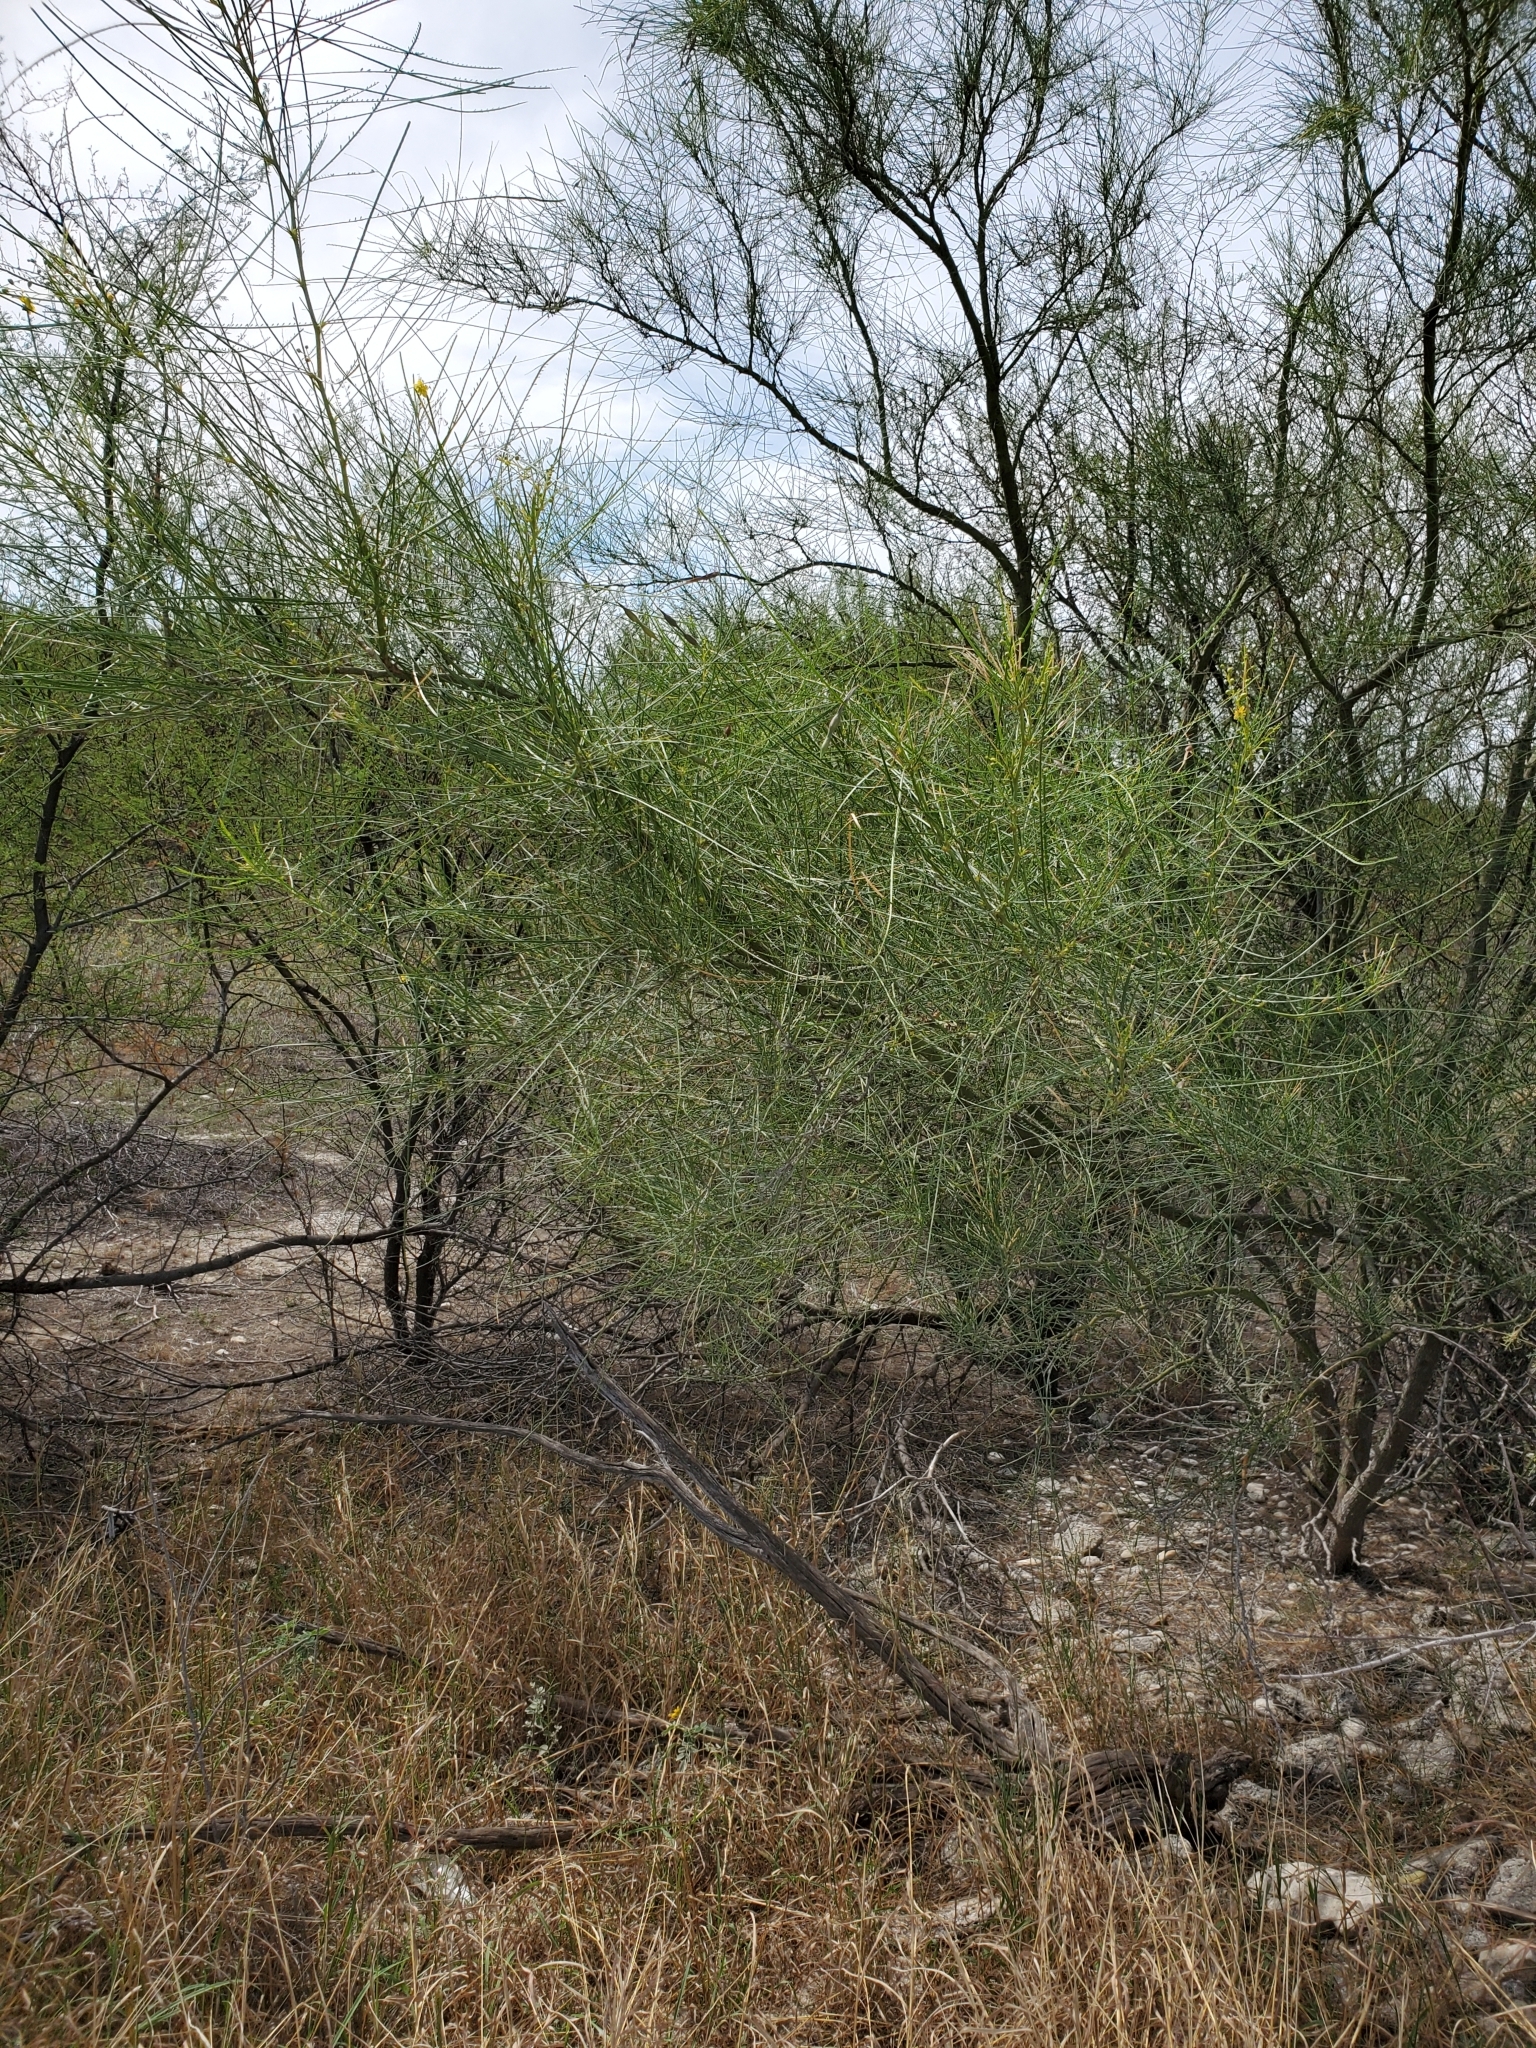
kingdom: Plantae
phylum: Tracheophyta
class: Magnoliopsida
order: Fabales
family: Fabaceae
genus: Parkinsonia
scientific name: Parkinsonia aculeata
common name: Jerusalem thorn
